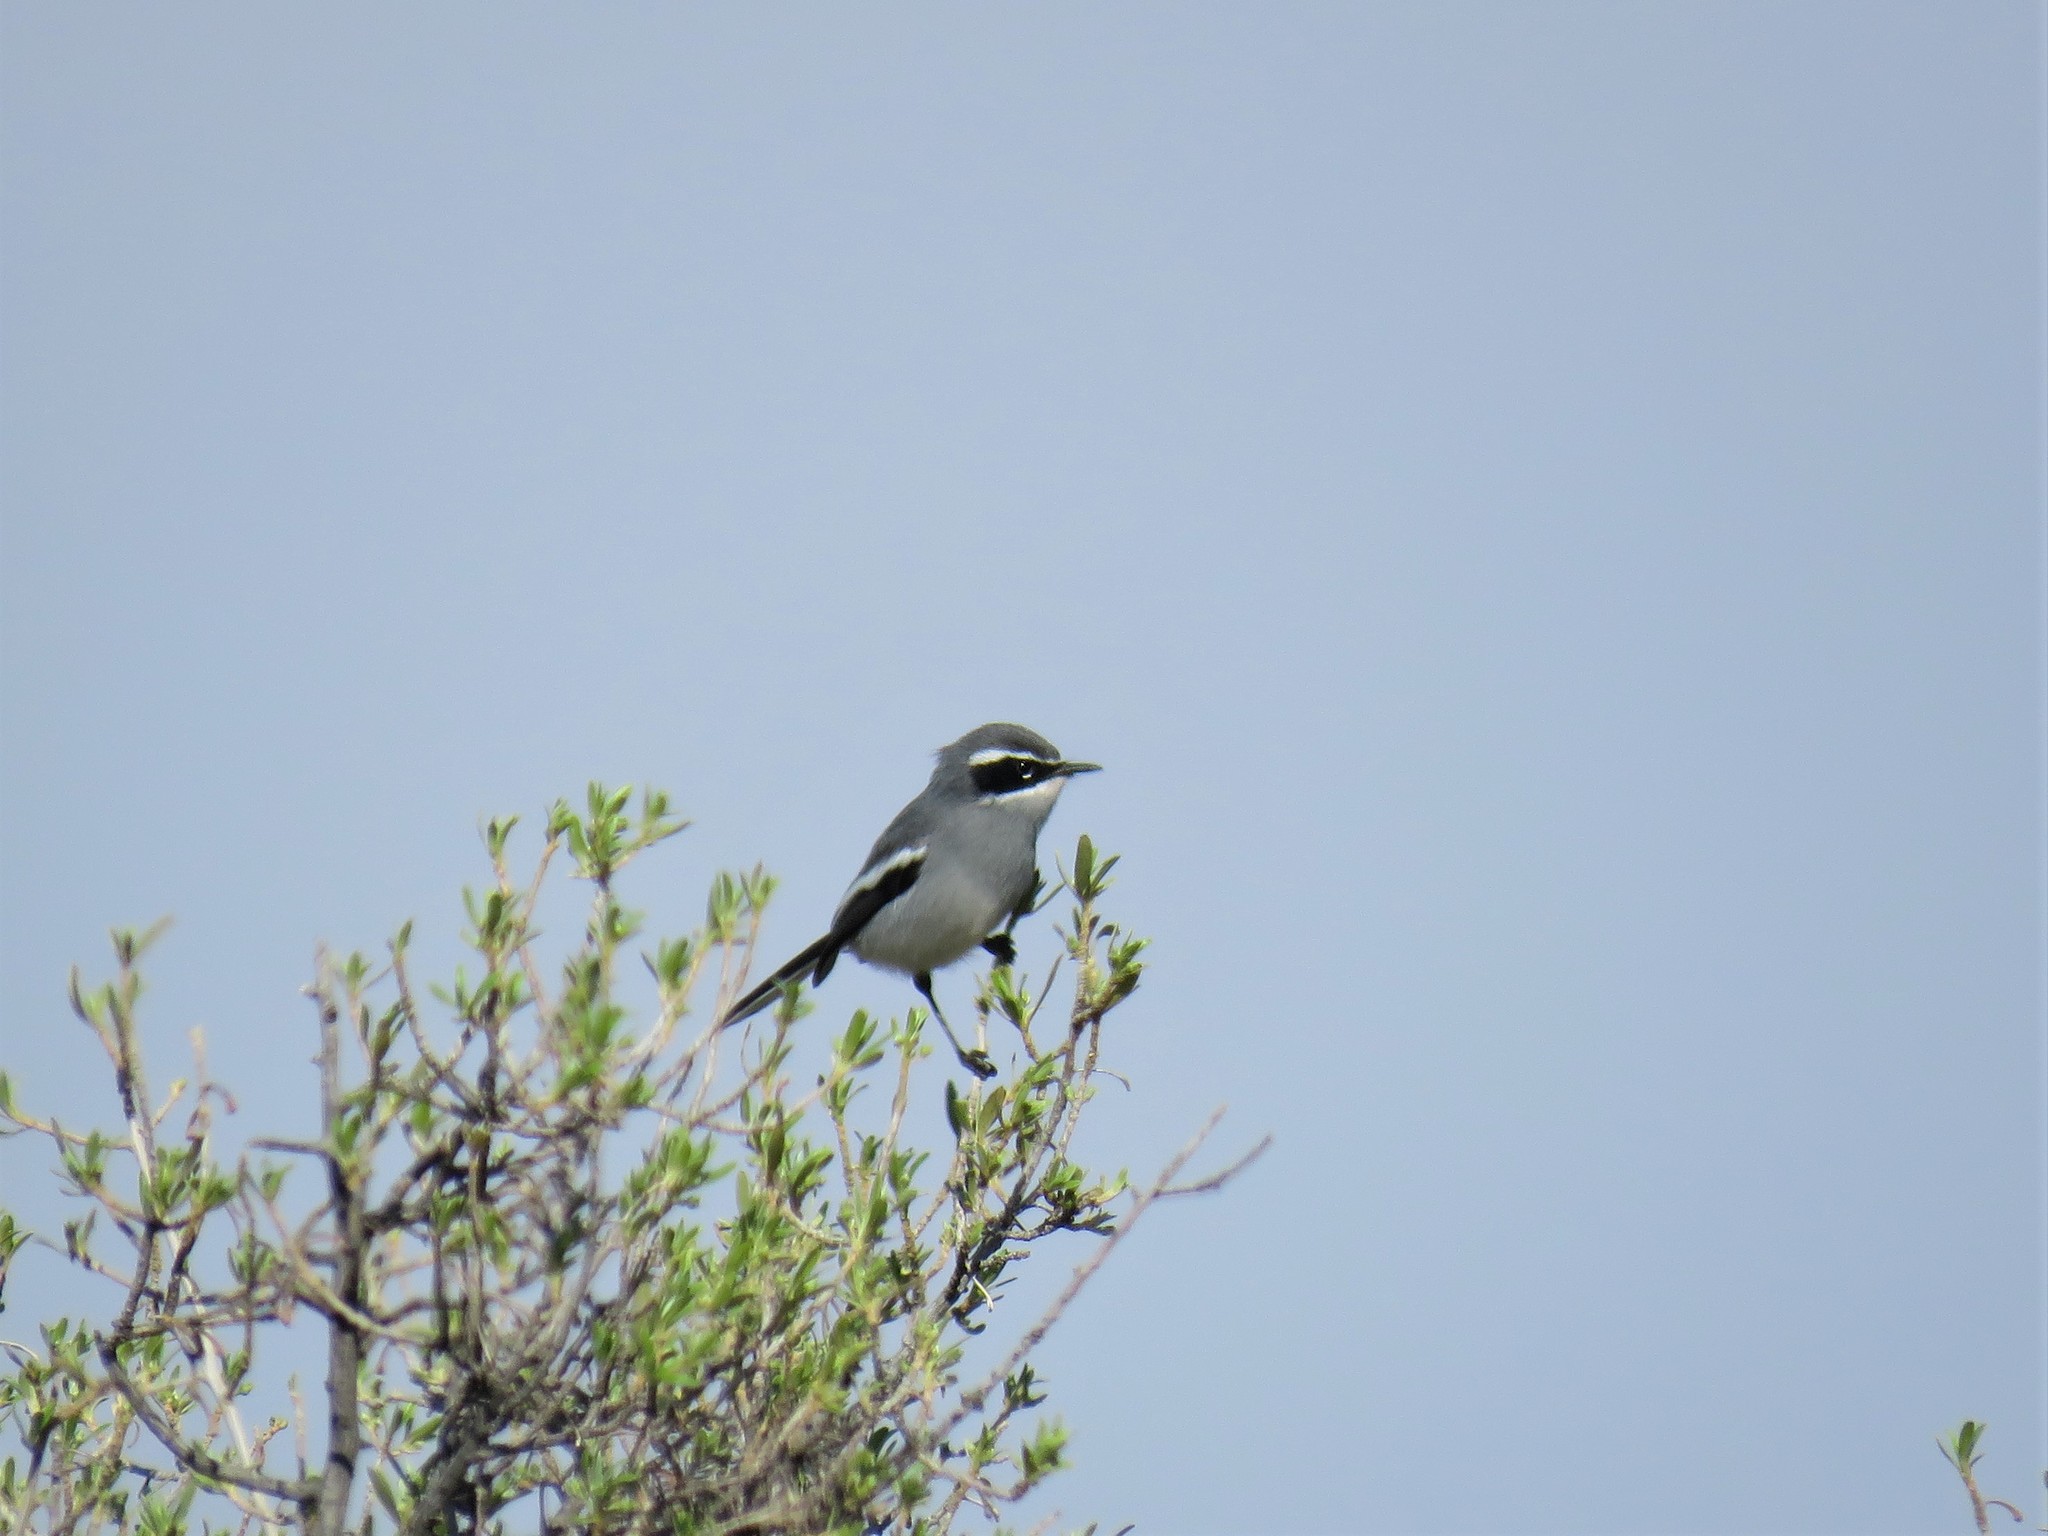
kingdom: Animalia
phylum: Chordata
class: Aves
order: Passeriformes
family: Stenostiridae
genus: Stenostira
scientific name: Stenostira scita
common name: Fairy flycatcher
